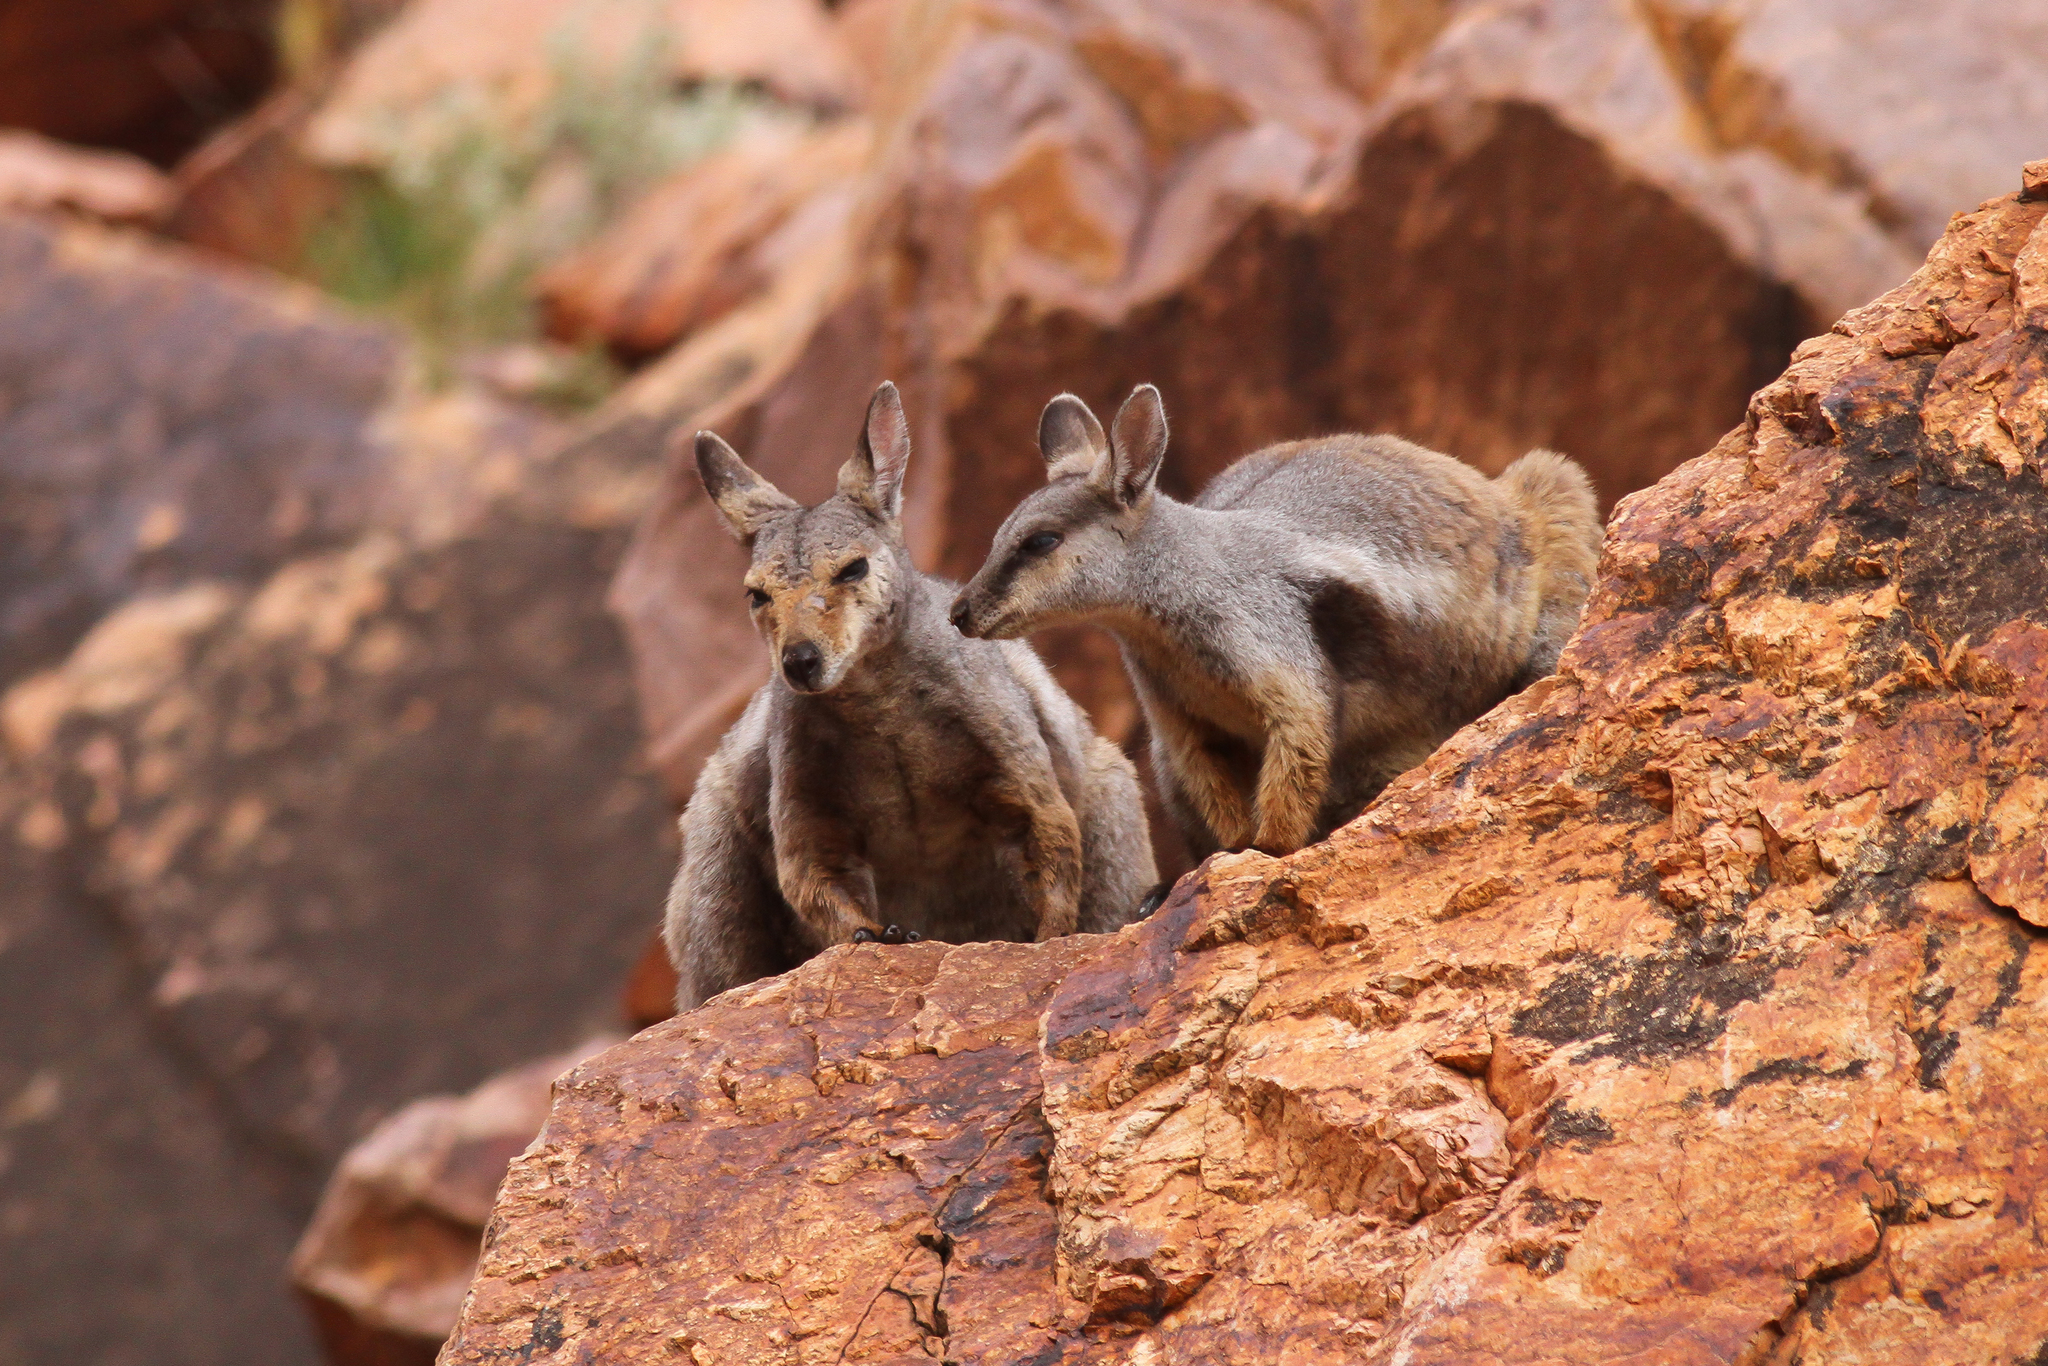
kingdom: Animalia
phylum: Chordata
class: Mammalia
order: Diprotodontia
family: Macropodidae
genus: Petrogale
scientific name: Petrogale lateralis
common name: Black-flanked rock-wallaby
